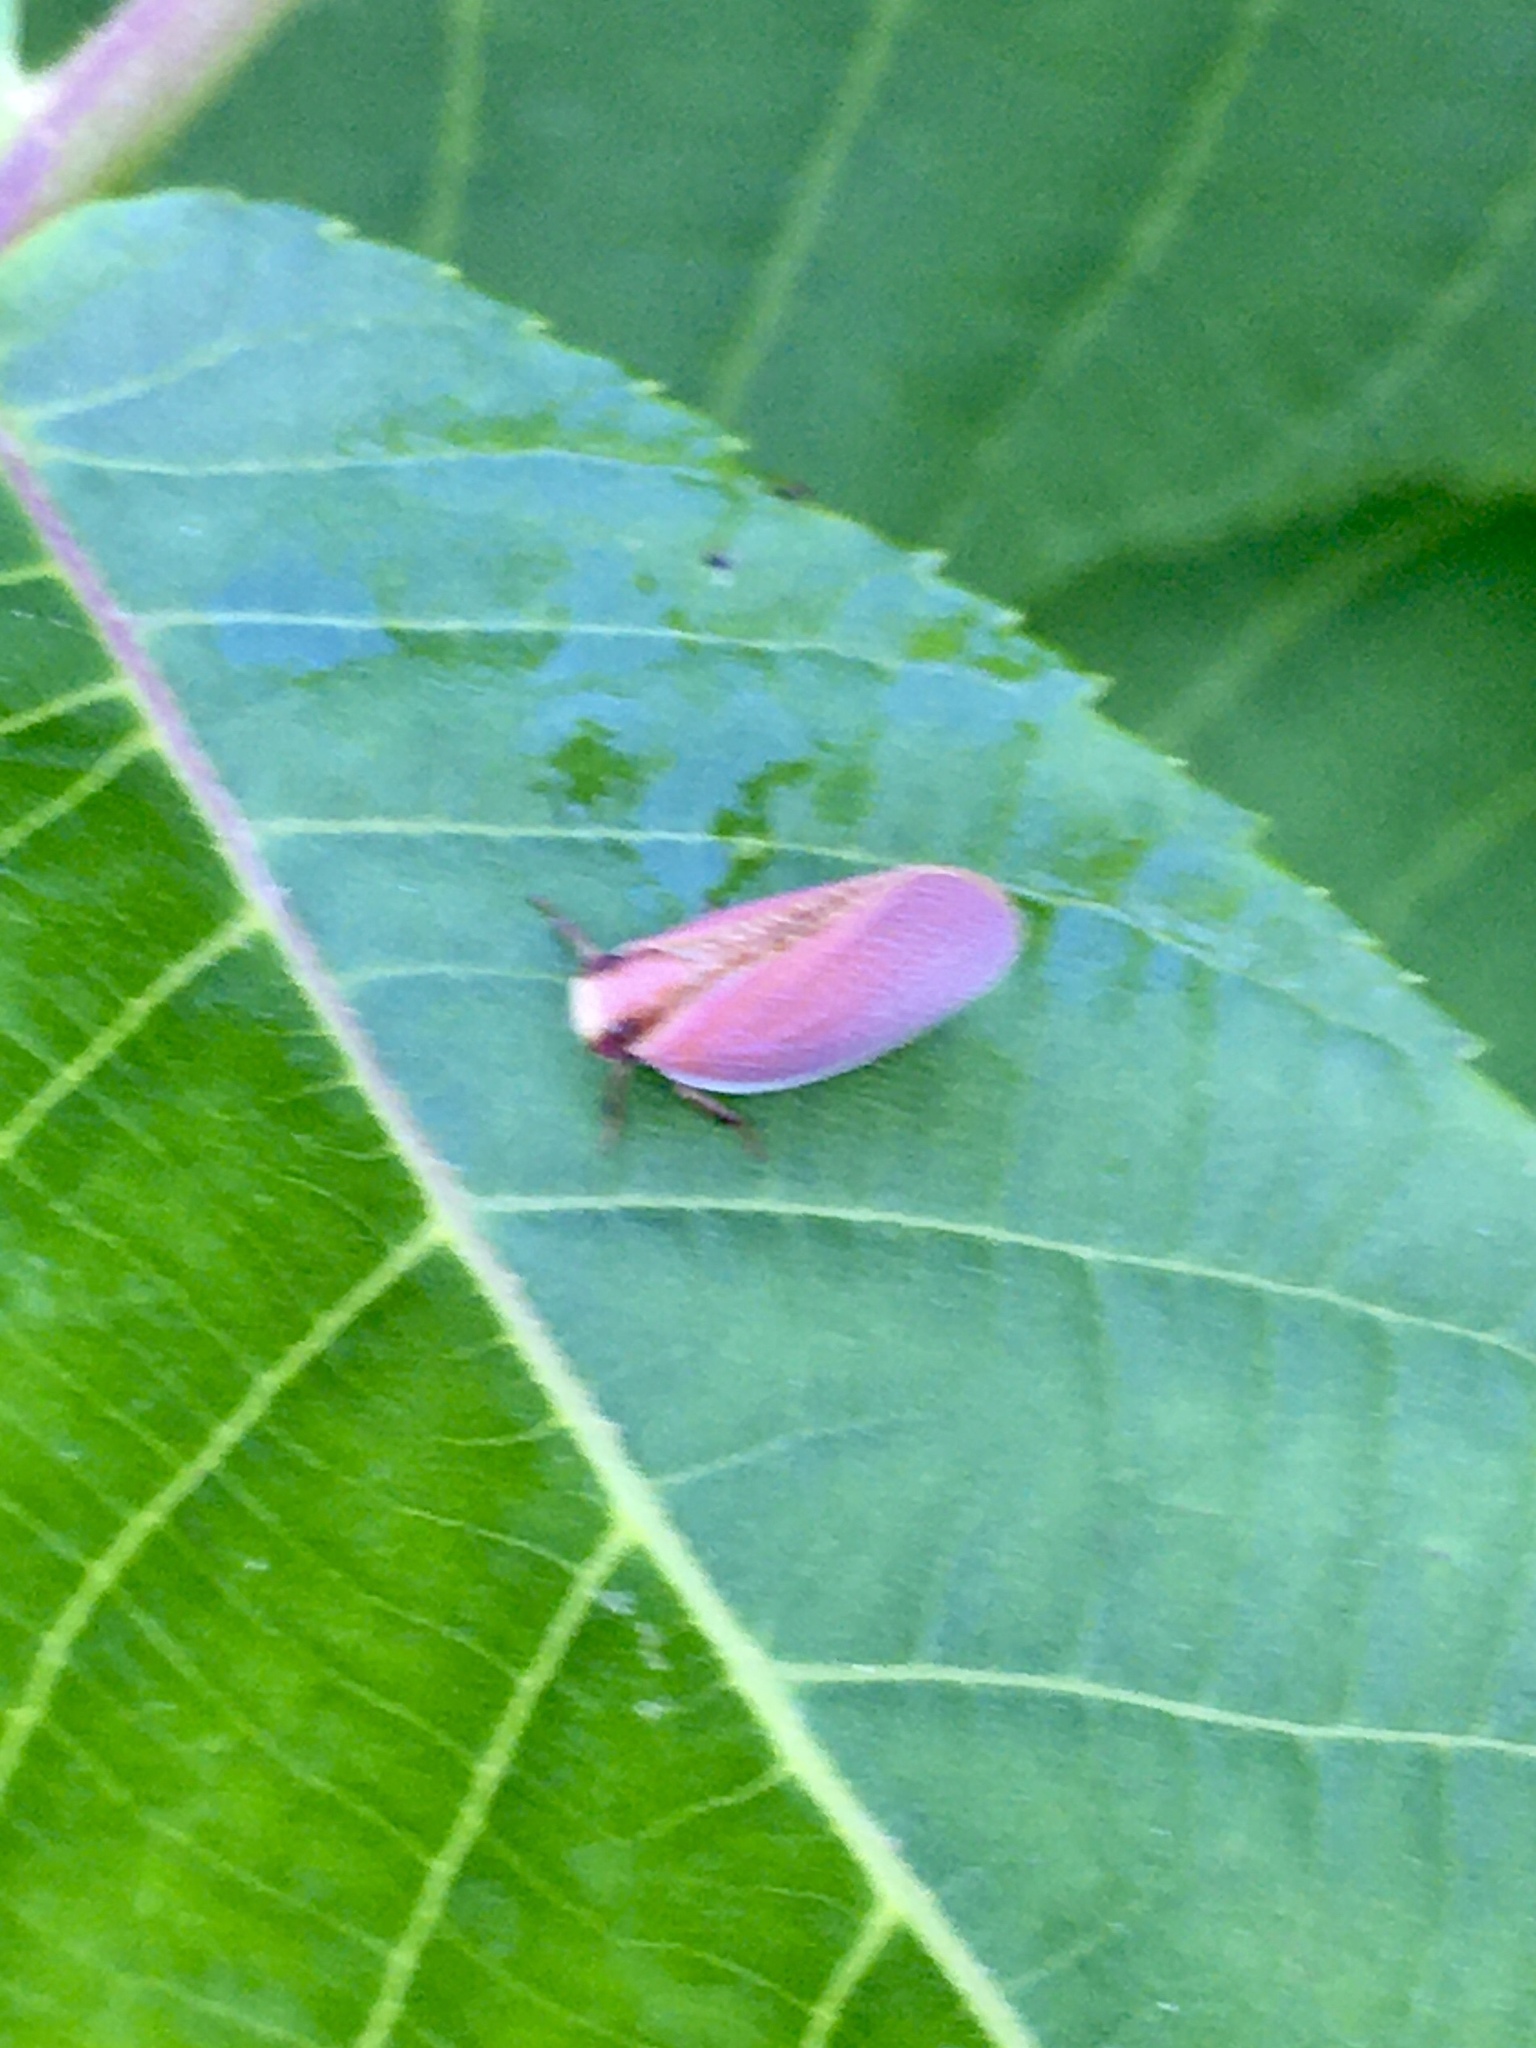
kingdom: Animalia
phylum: Arthropoda
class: Insecta
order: Hemiptera
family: Acanaloniidae
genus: Acanalonia
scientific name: Acanalonia bivittata
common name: Two-striped planthopper
